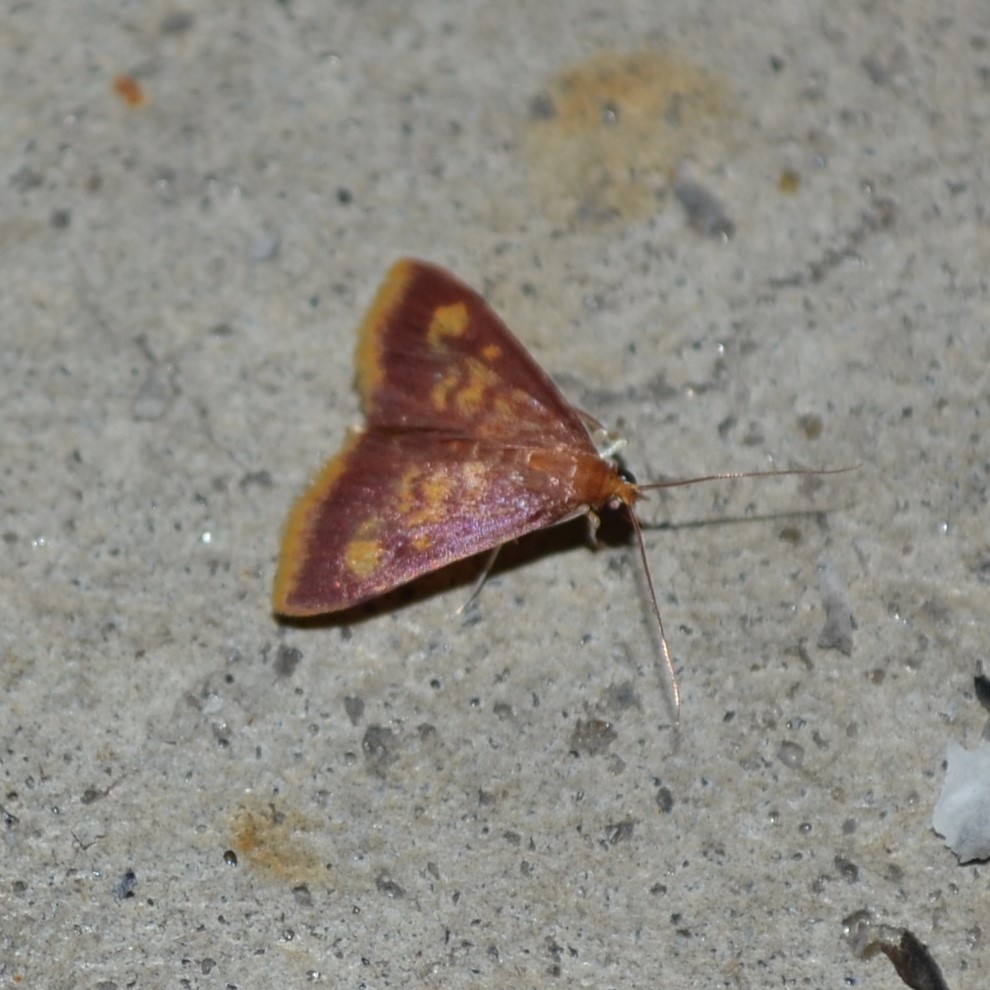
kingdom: Animalia
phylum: Arthropoda
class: Insecta
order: Lepidoptera
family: Crambidae
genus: Pyrausta
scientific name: Pyrausta acrionalis
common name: Mint-loving pyrausta moth
